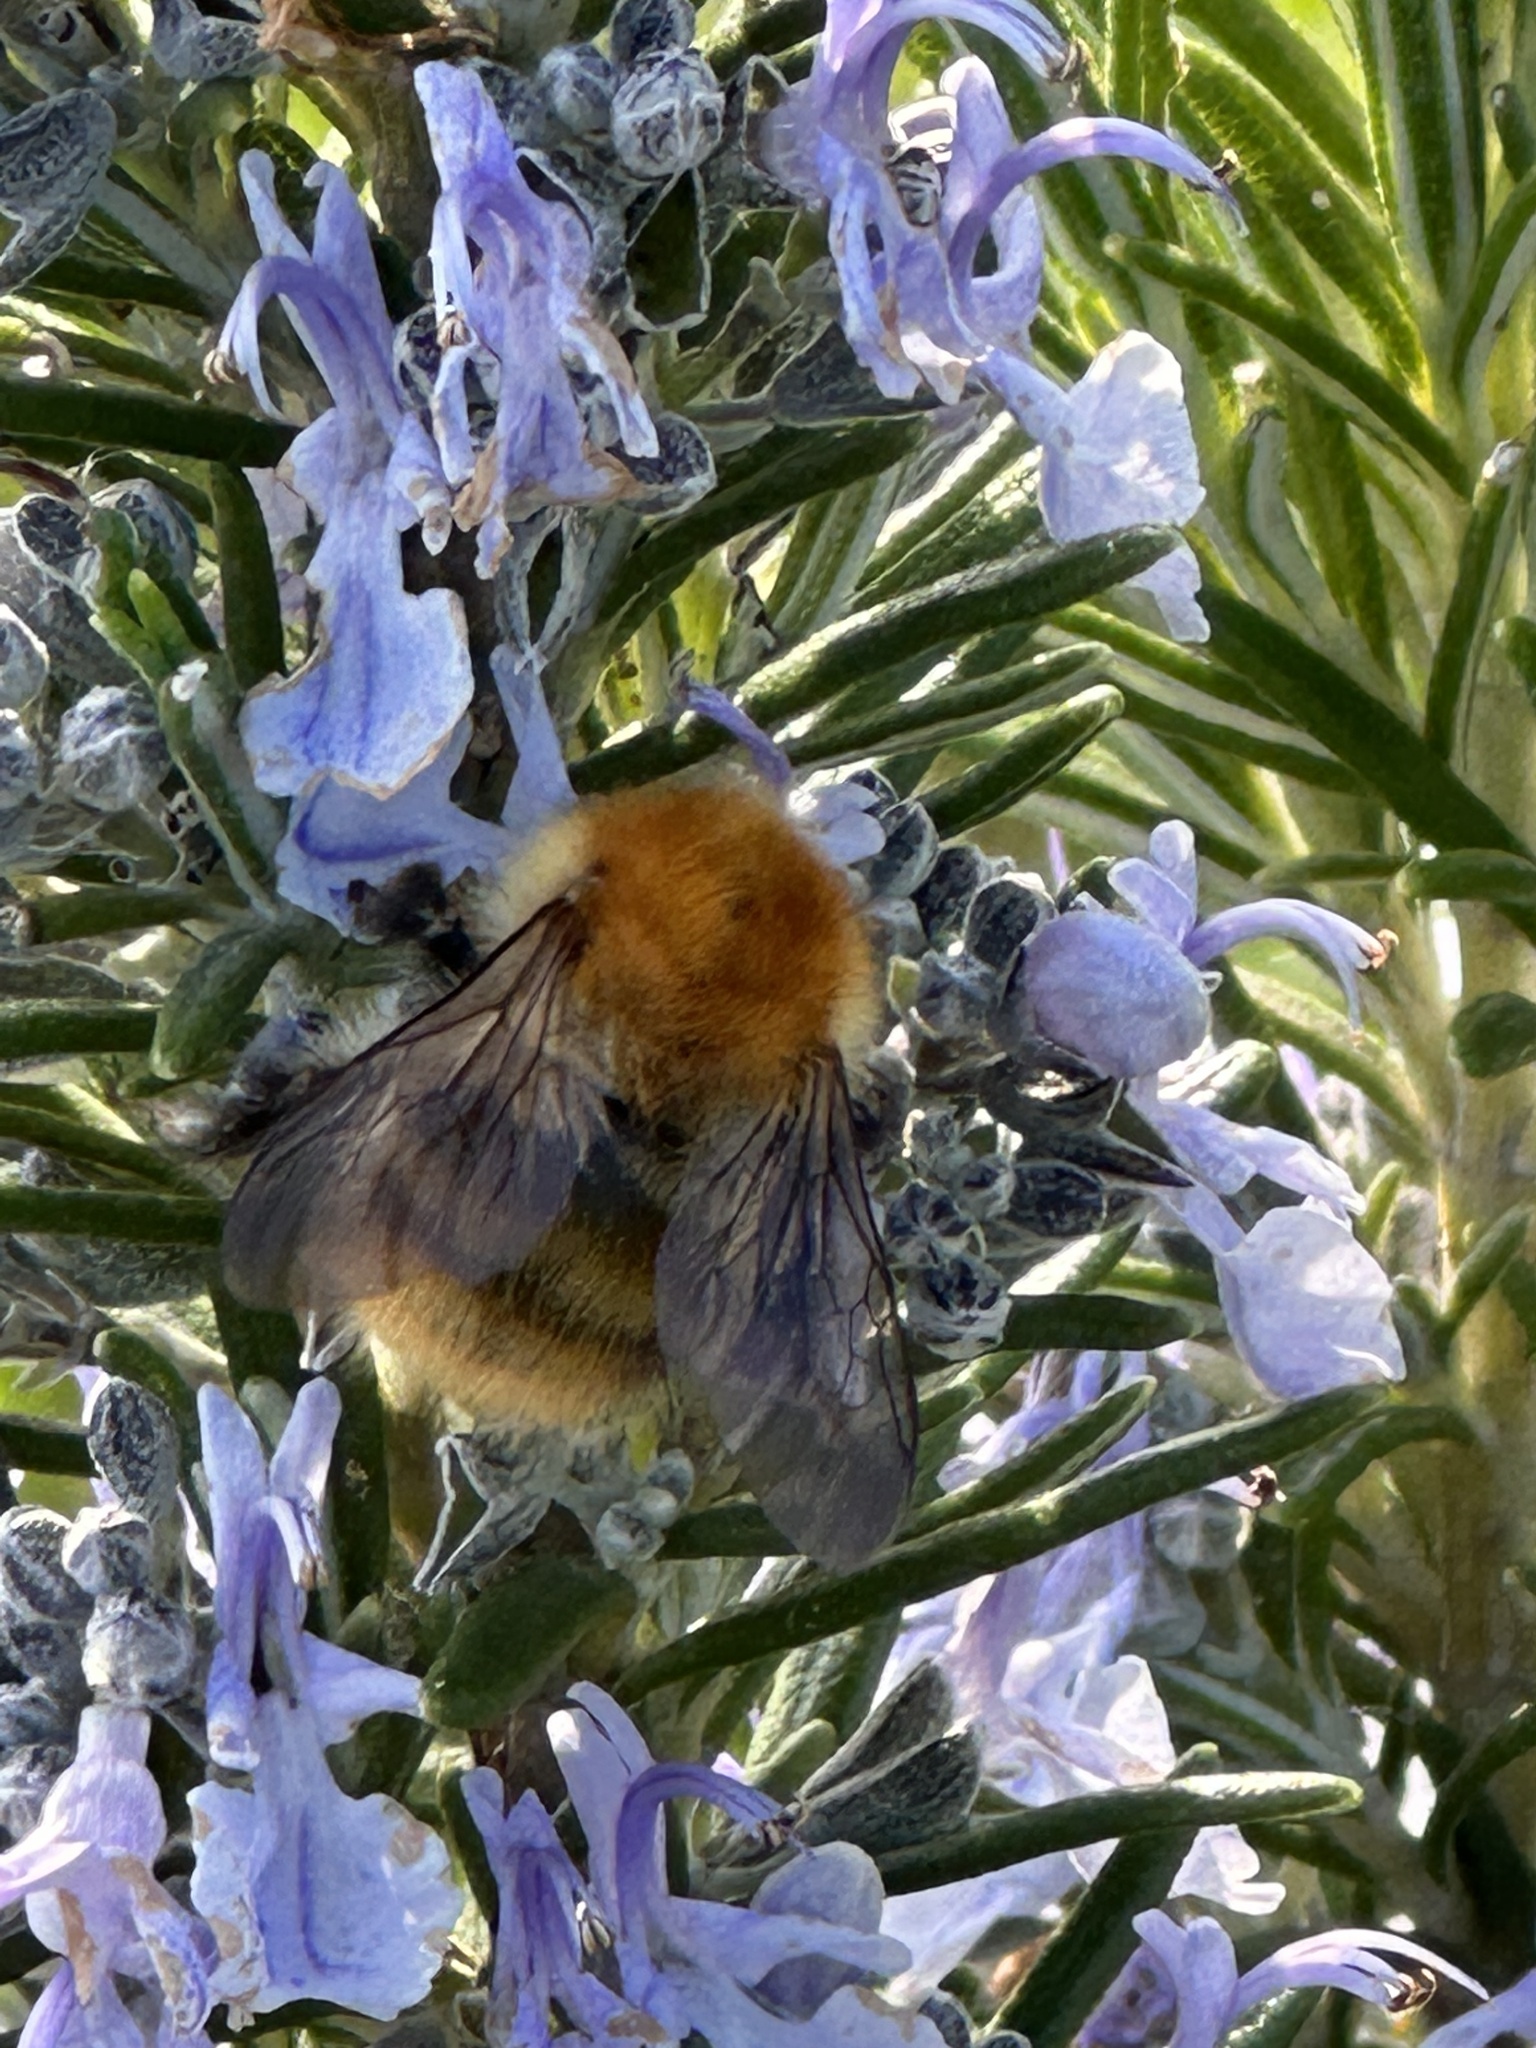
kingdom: Animalia
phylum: Arthropoda
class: Insecta
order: Hymenoptera
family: Apidae
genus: Bombus
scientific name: Bombus pascuorum
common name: Common carder bee
